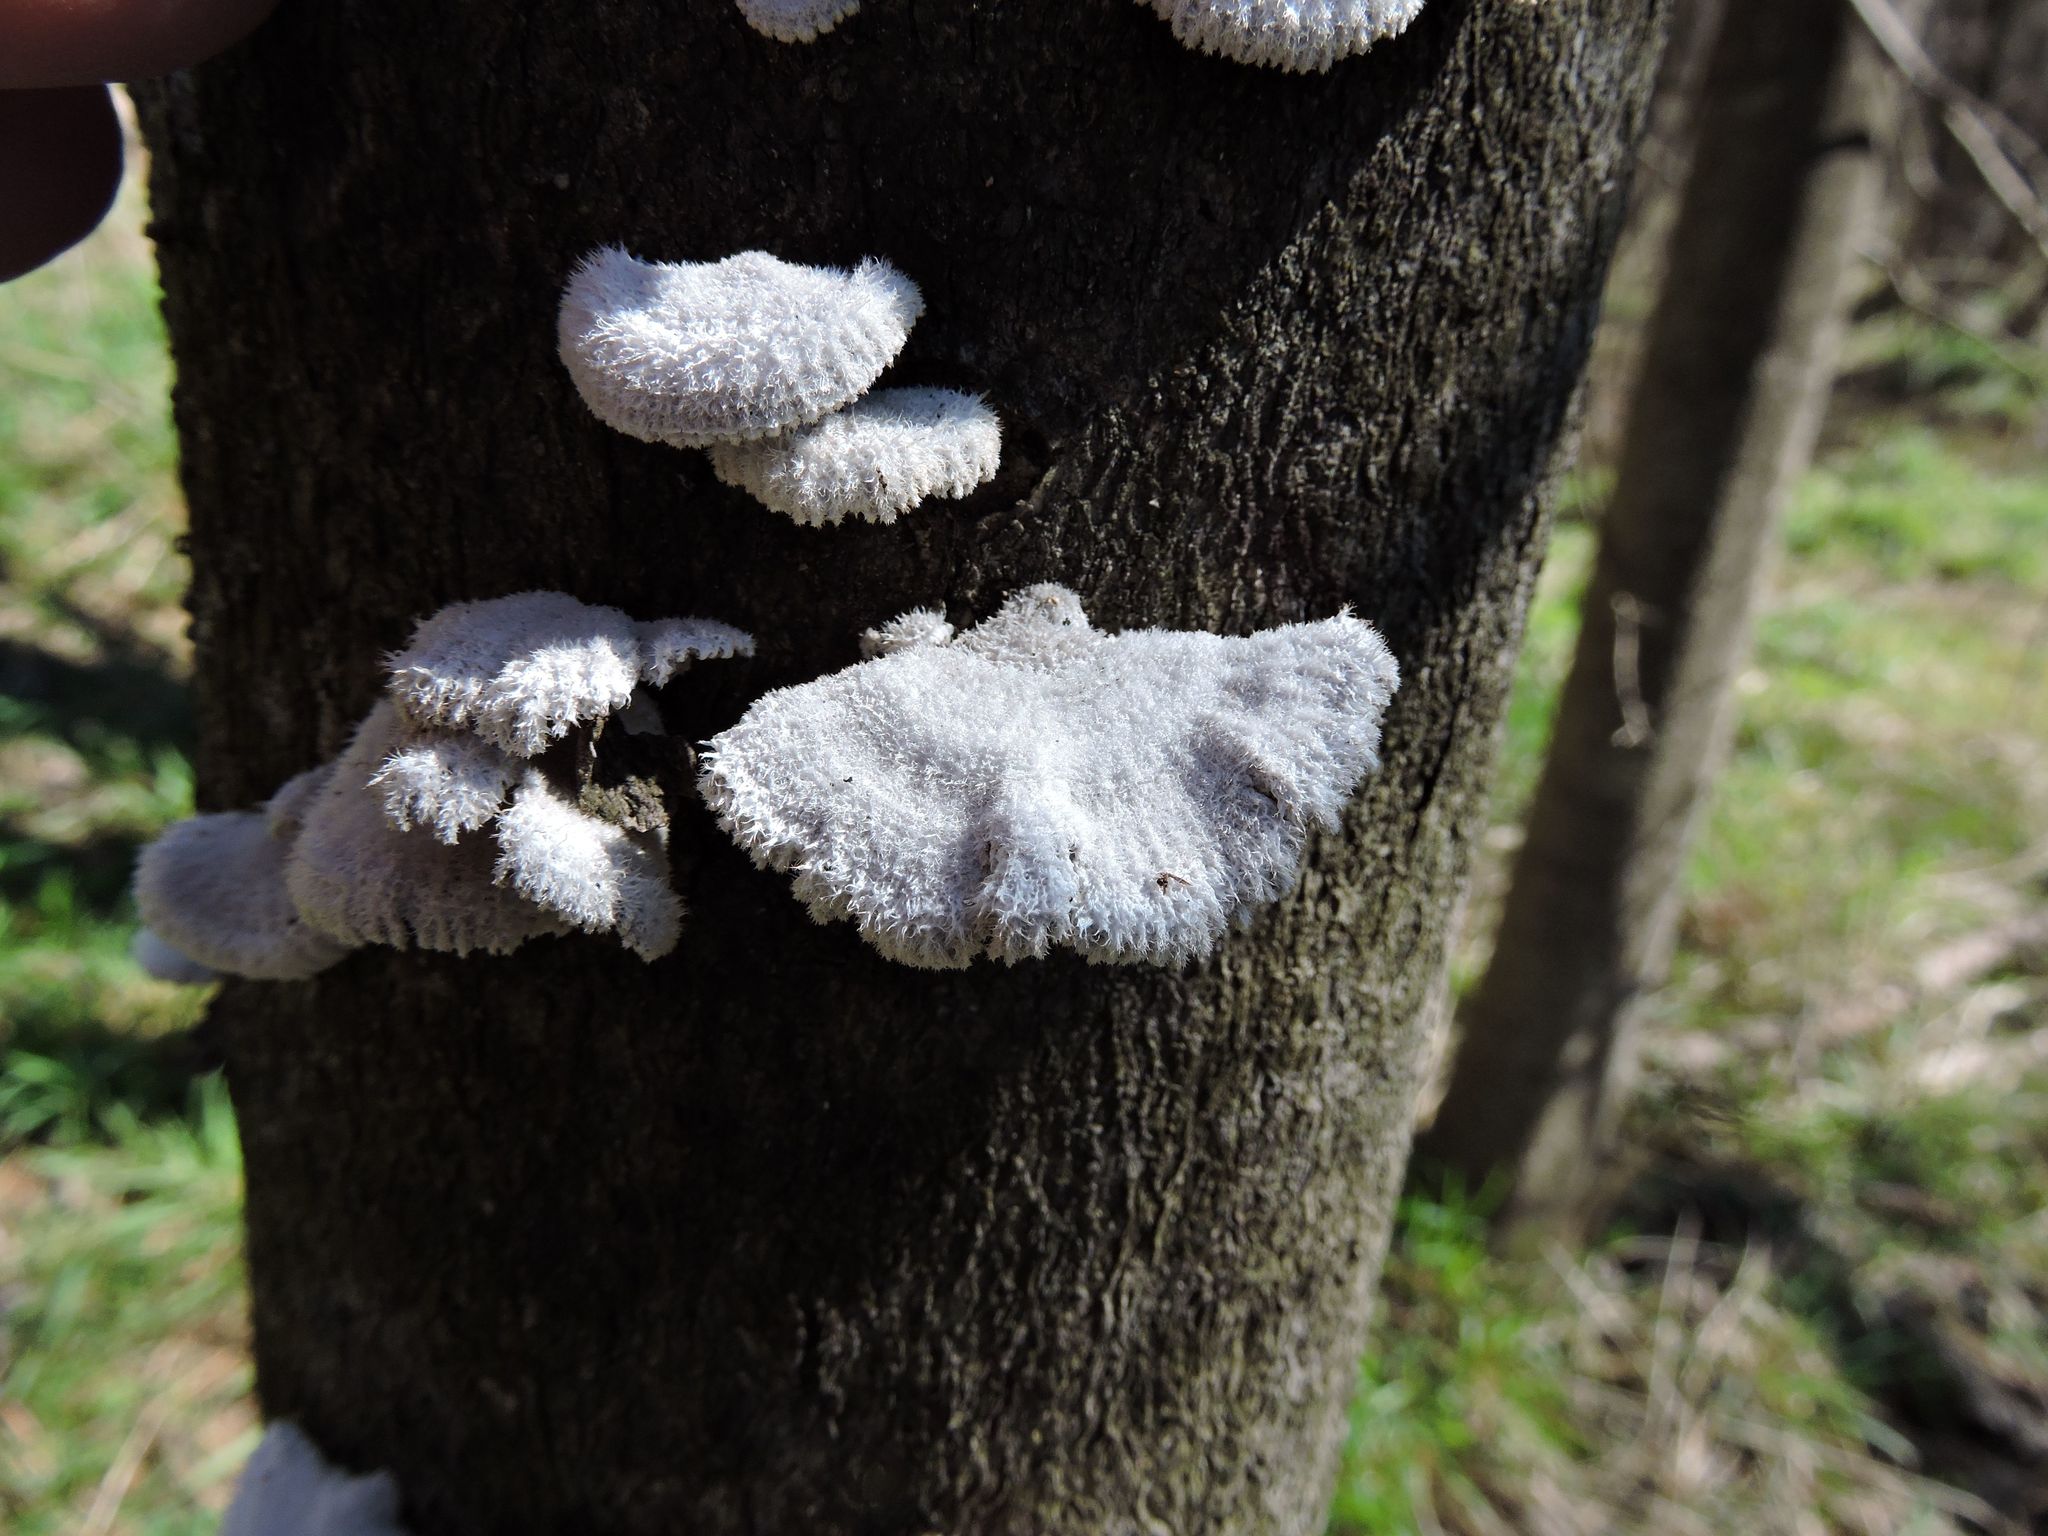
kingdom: Fungi
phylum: Basidiomycota
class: Agaricomycetes
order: Agaricales
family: Schizophyllaceae
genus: Schizophyllum
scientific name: Schizophyllum commune
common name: Common porecrust
